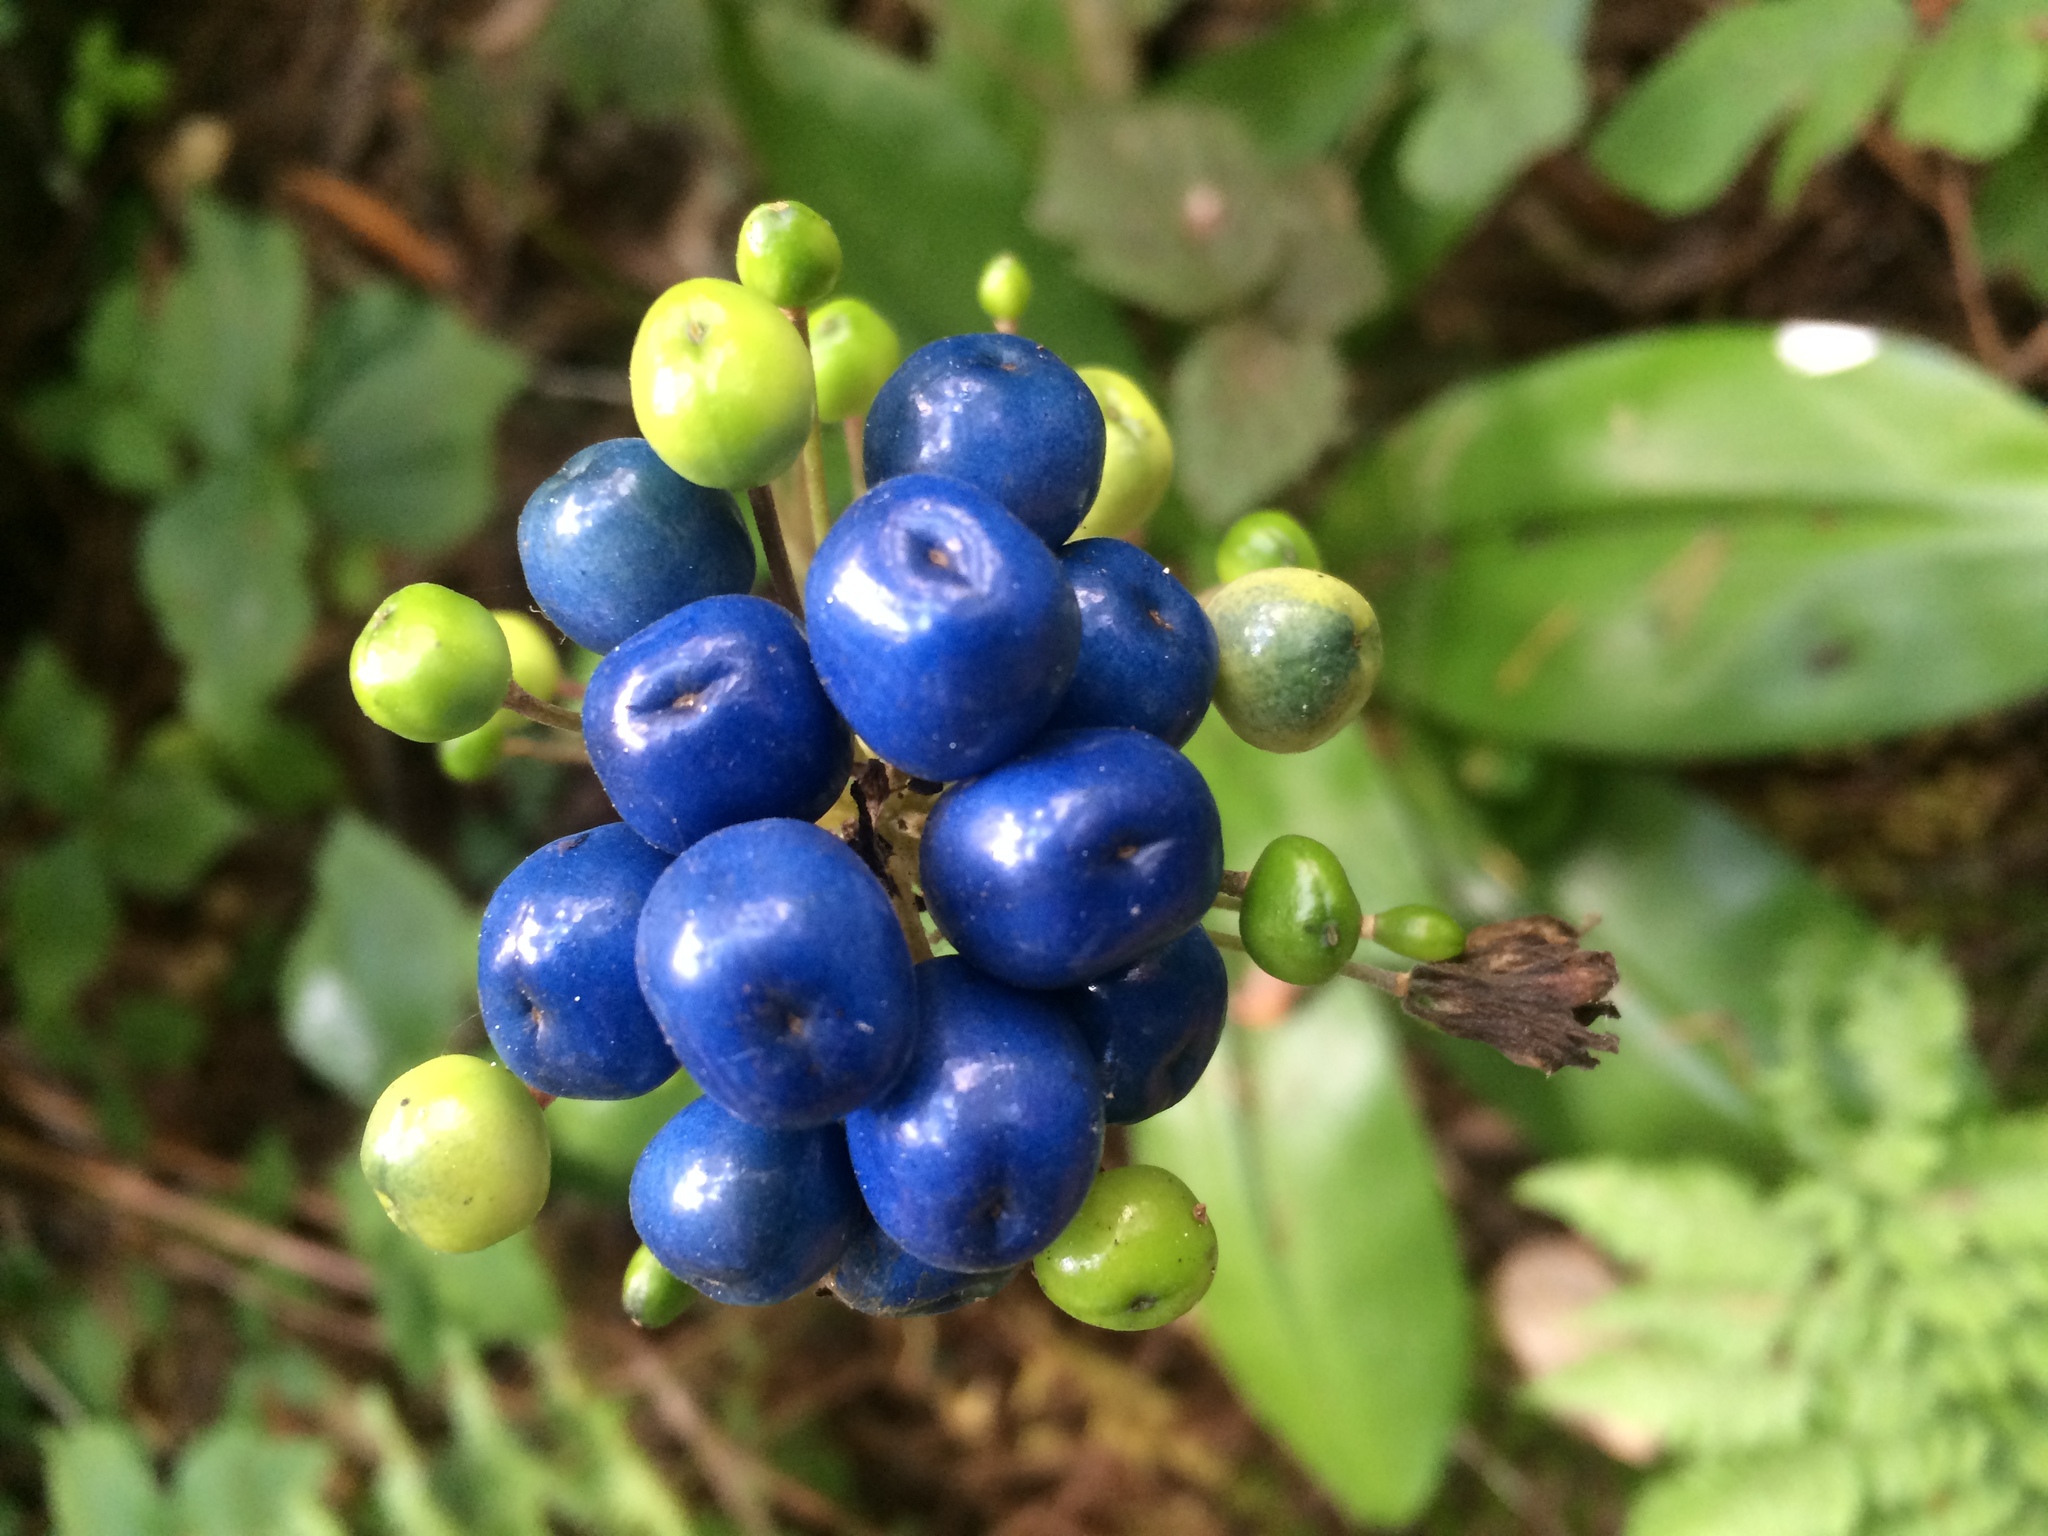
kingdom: Plantae
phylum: Tracheophyta
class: Liliopsida
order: Liliales
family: Liliaceae
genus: Clintonia
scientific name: Clintonia andrewsiana
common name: Red clintonia
